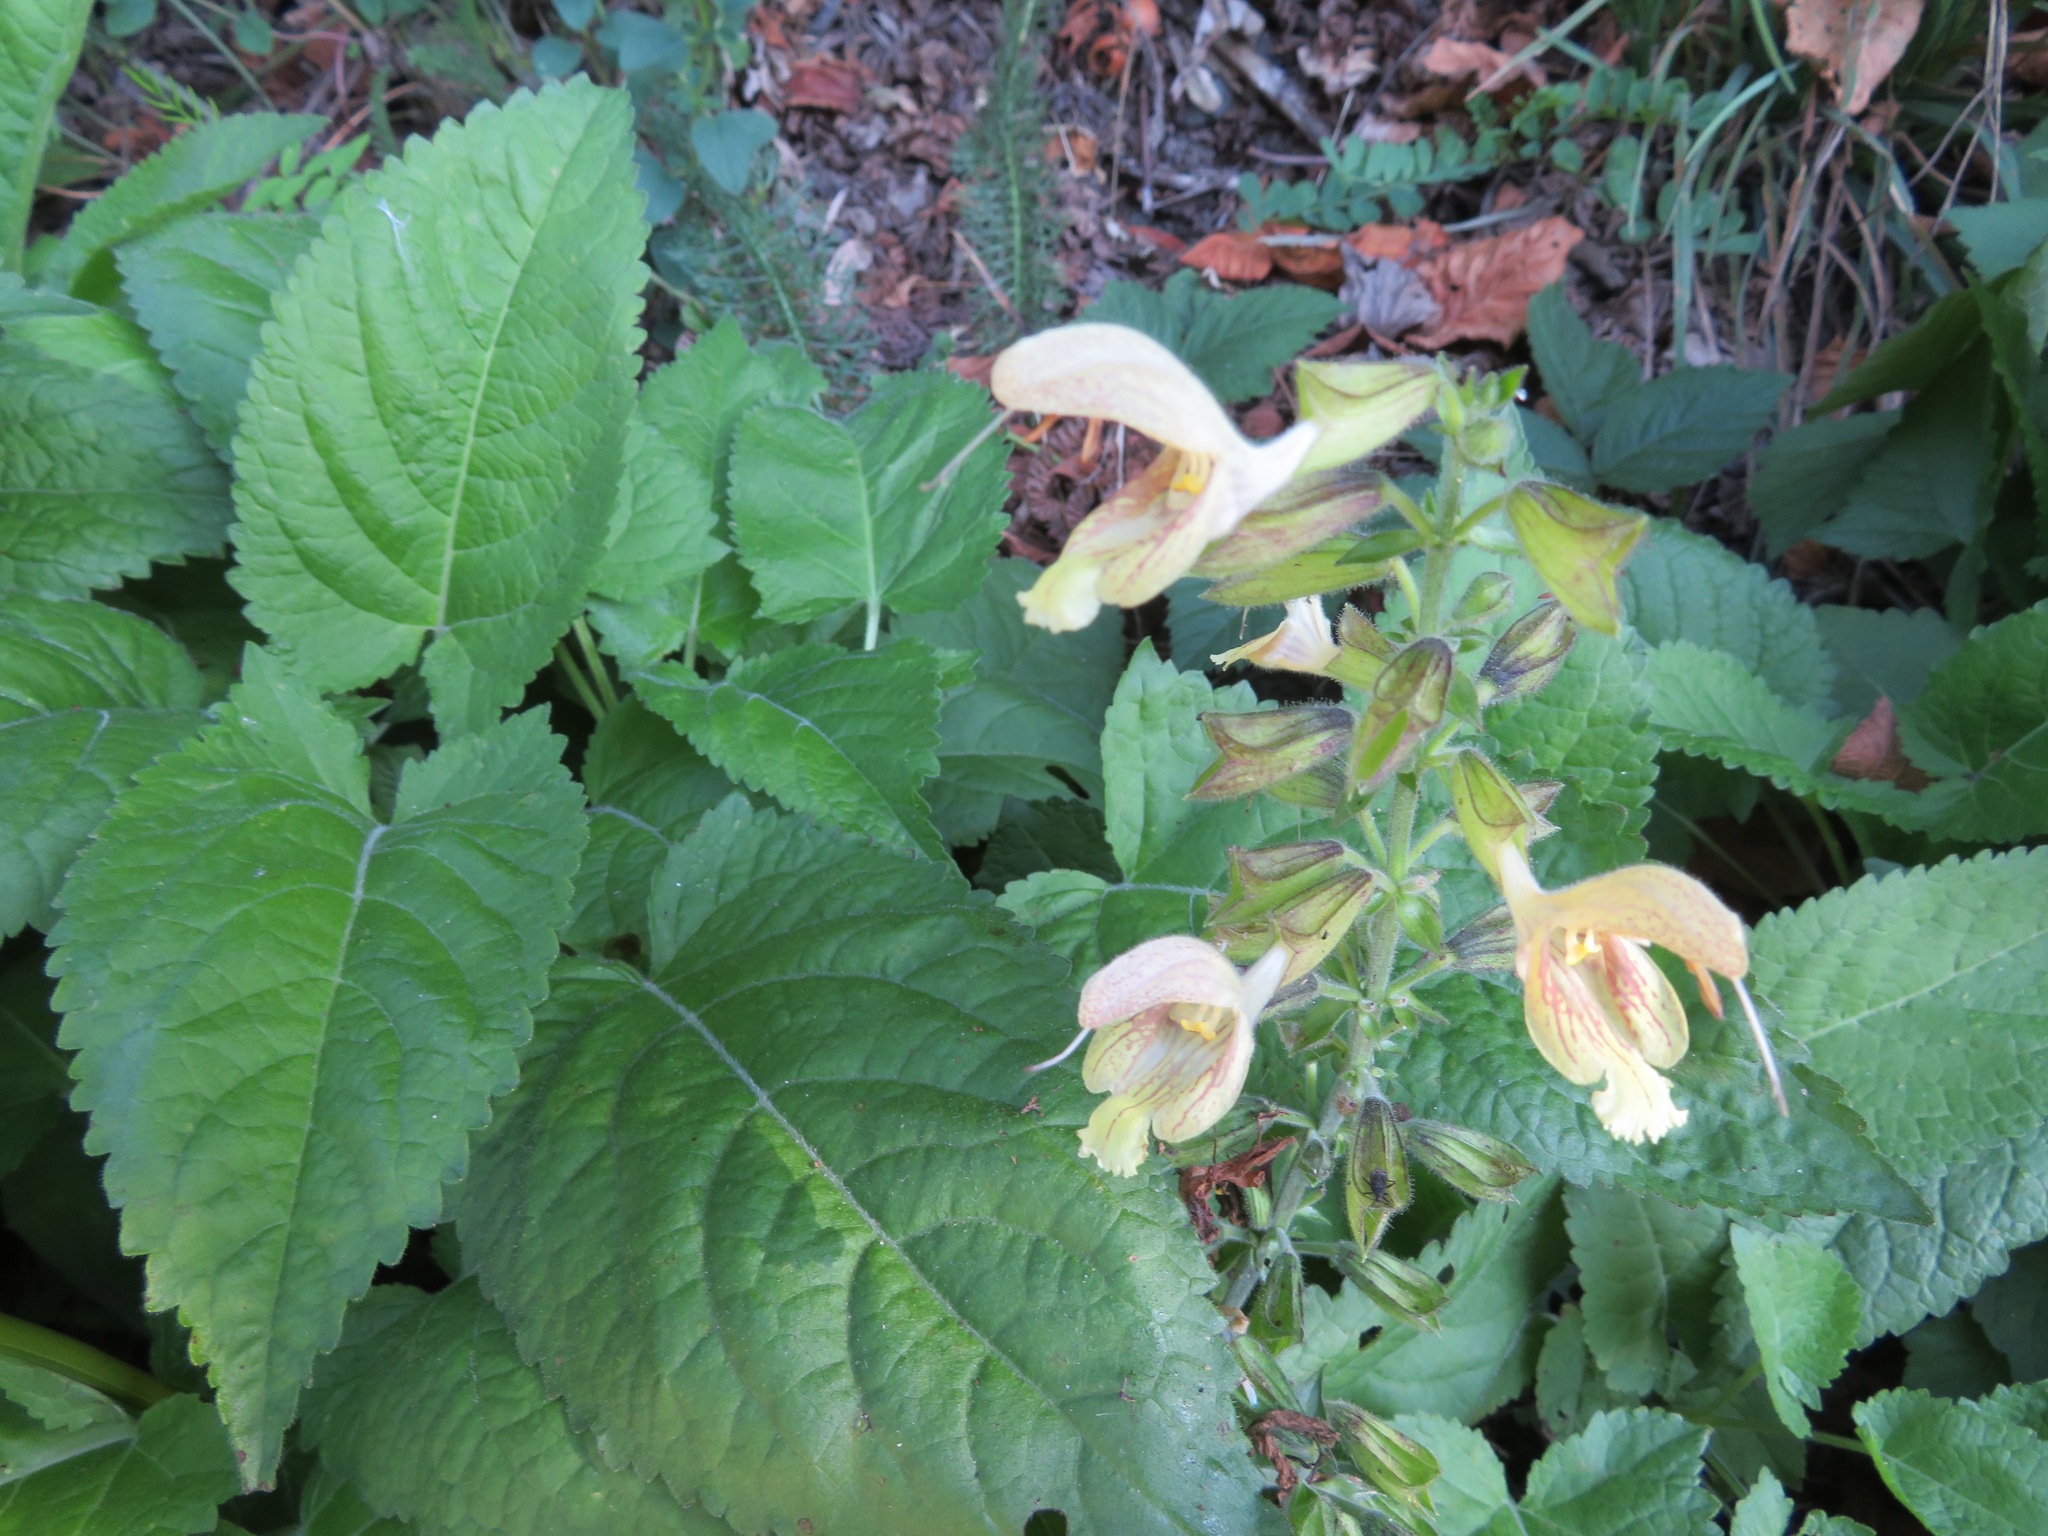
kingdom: Plantae
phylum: Tracheophyta
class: Magnoliopsida
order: Lamiales
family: Lamiaceae
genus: Salvia
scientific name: Salvia glutinosa
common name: Sticky clary
